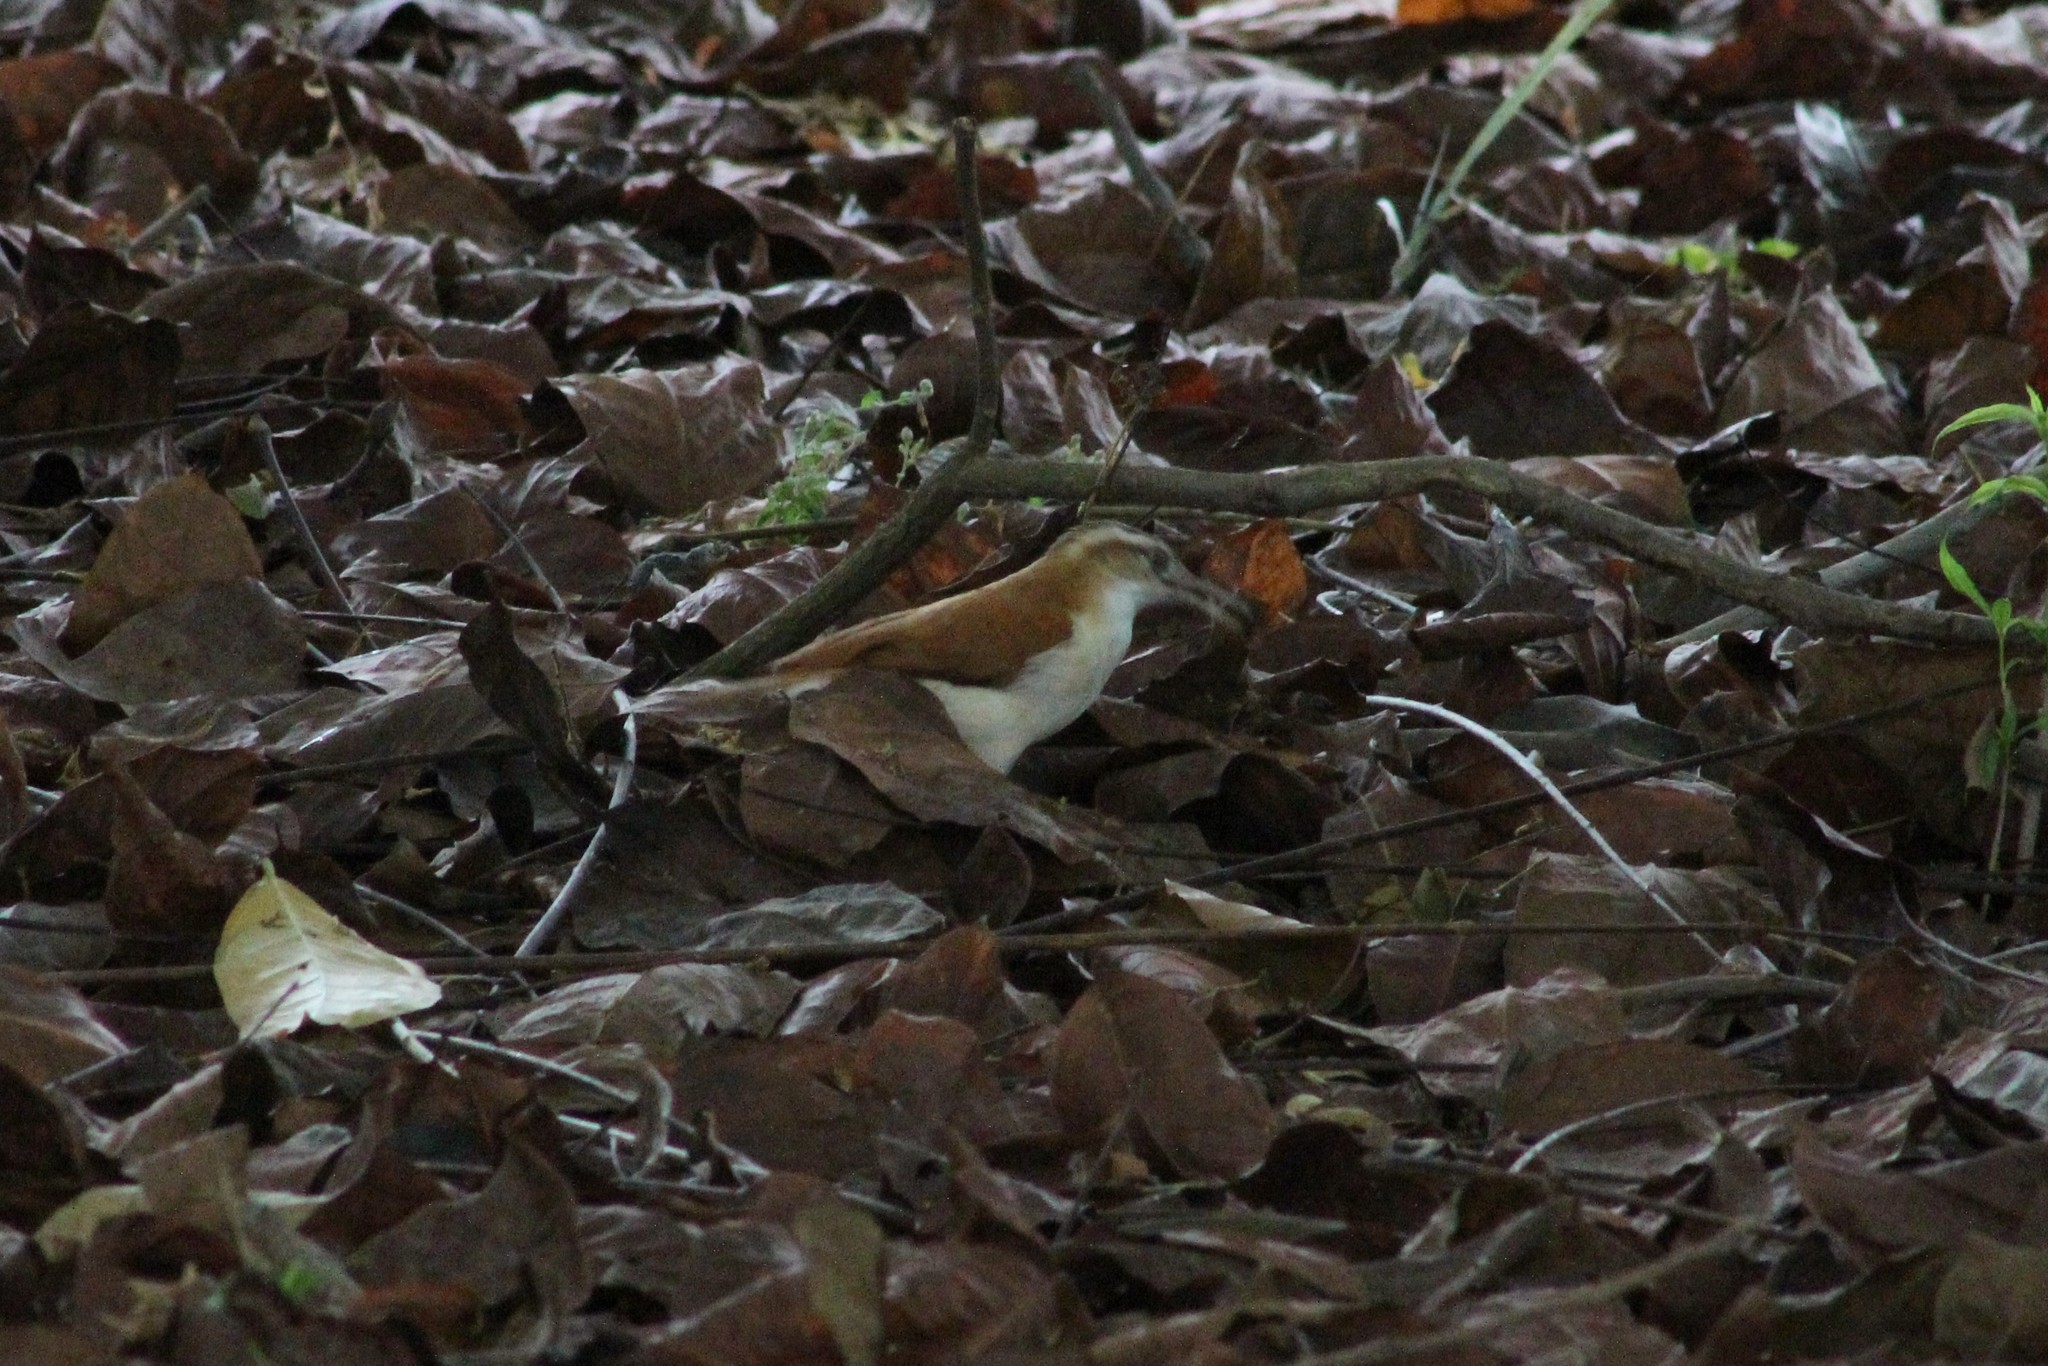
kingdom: Animalia
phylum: Chordata
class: Aves
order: Passeriformes
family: Furnariidae
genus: Furnarius
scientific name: Furnarius leucopus
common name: Pale-legged hornero
